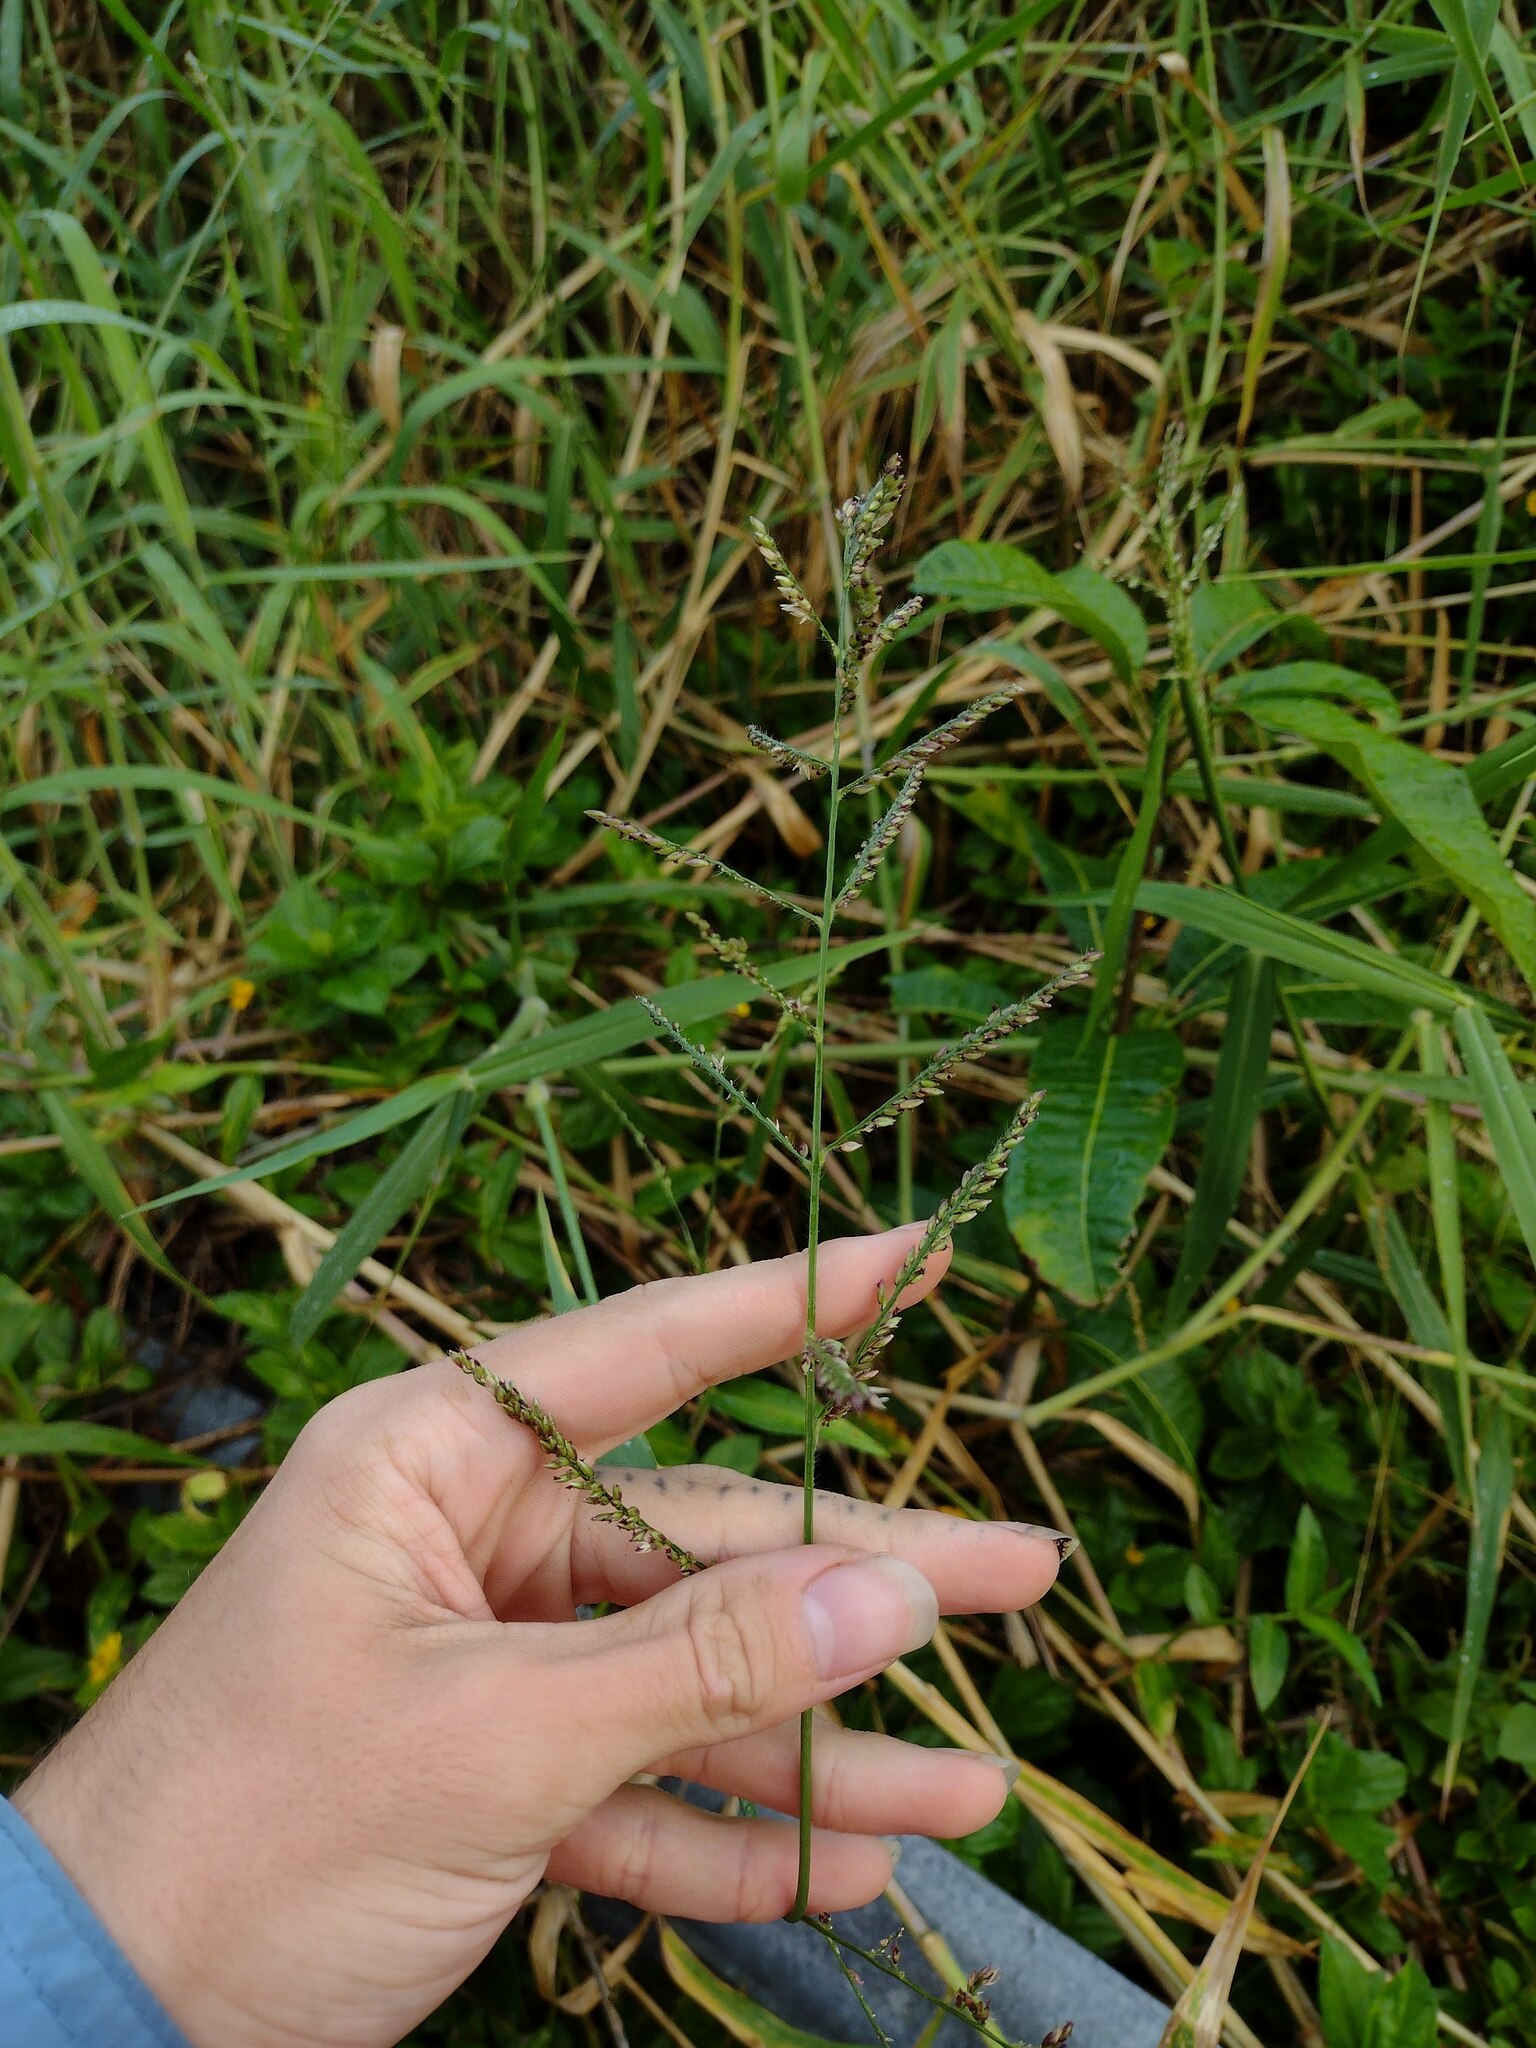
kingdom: Plantae
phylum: Tracheophyta
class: Liliopsida
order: Poales
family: Poaceae
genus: Urochloa
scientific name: Urochloa mutica
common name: Para grass
